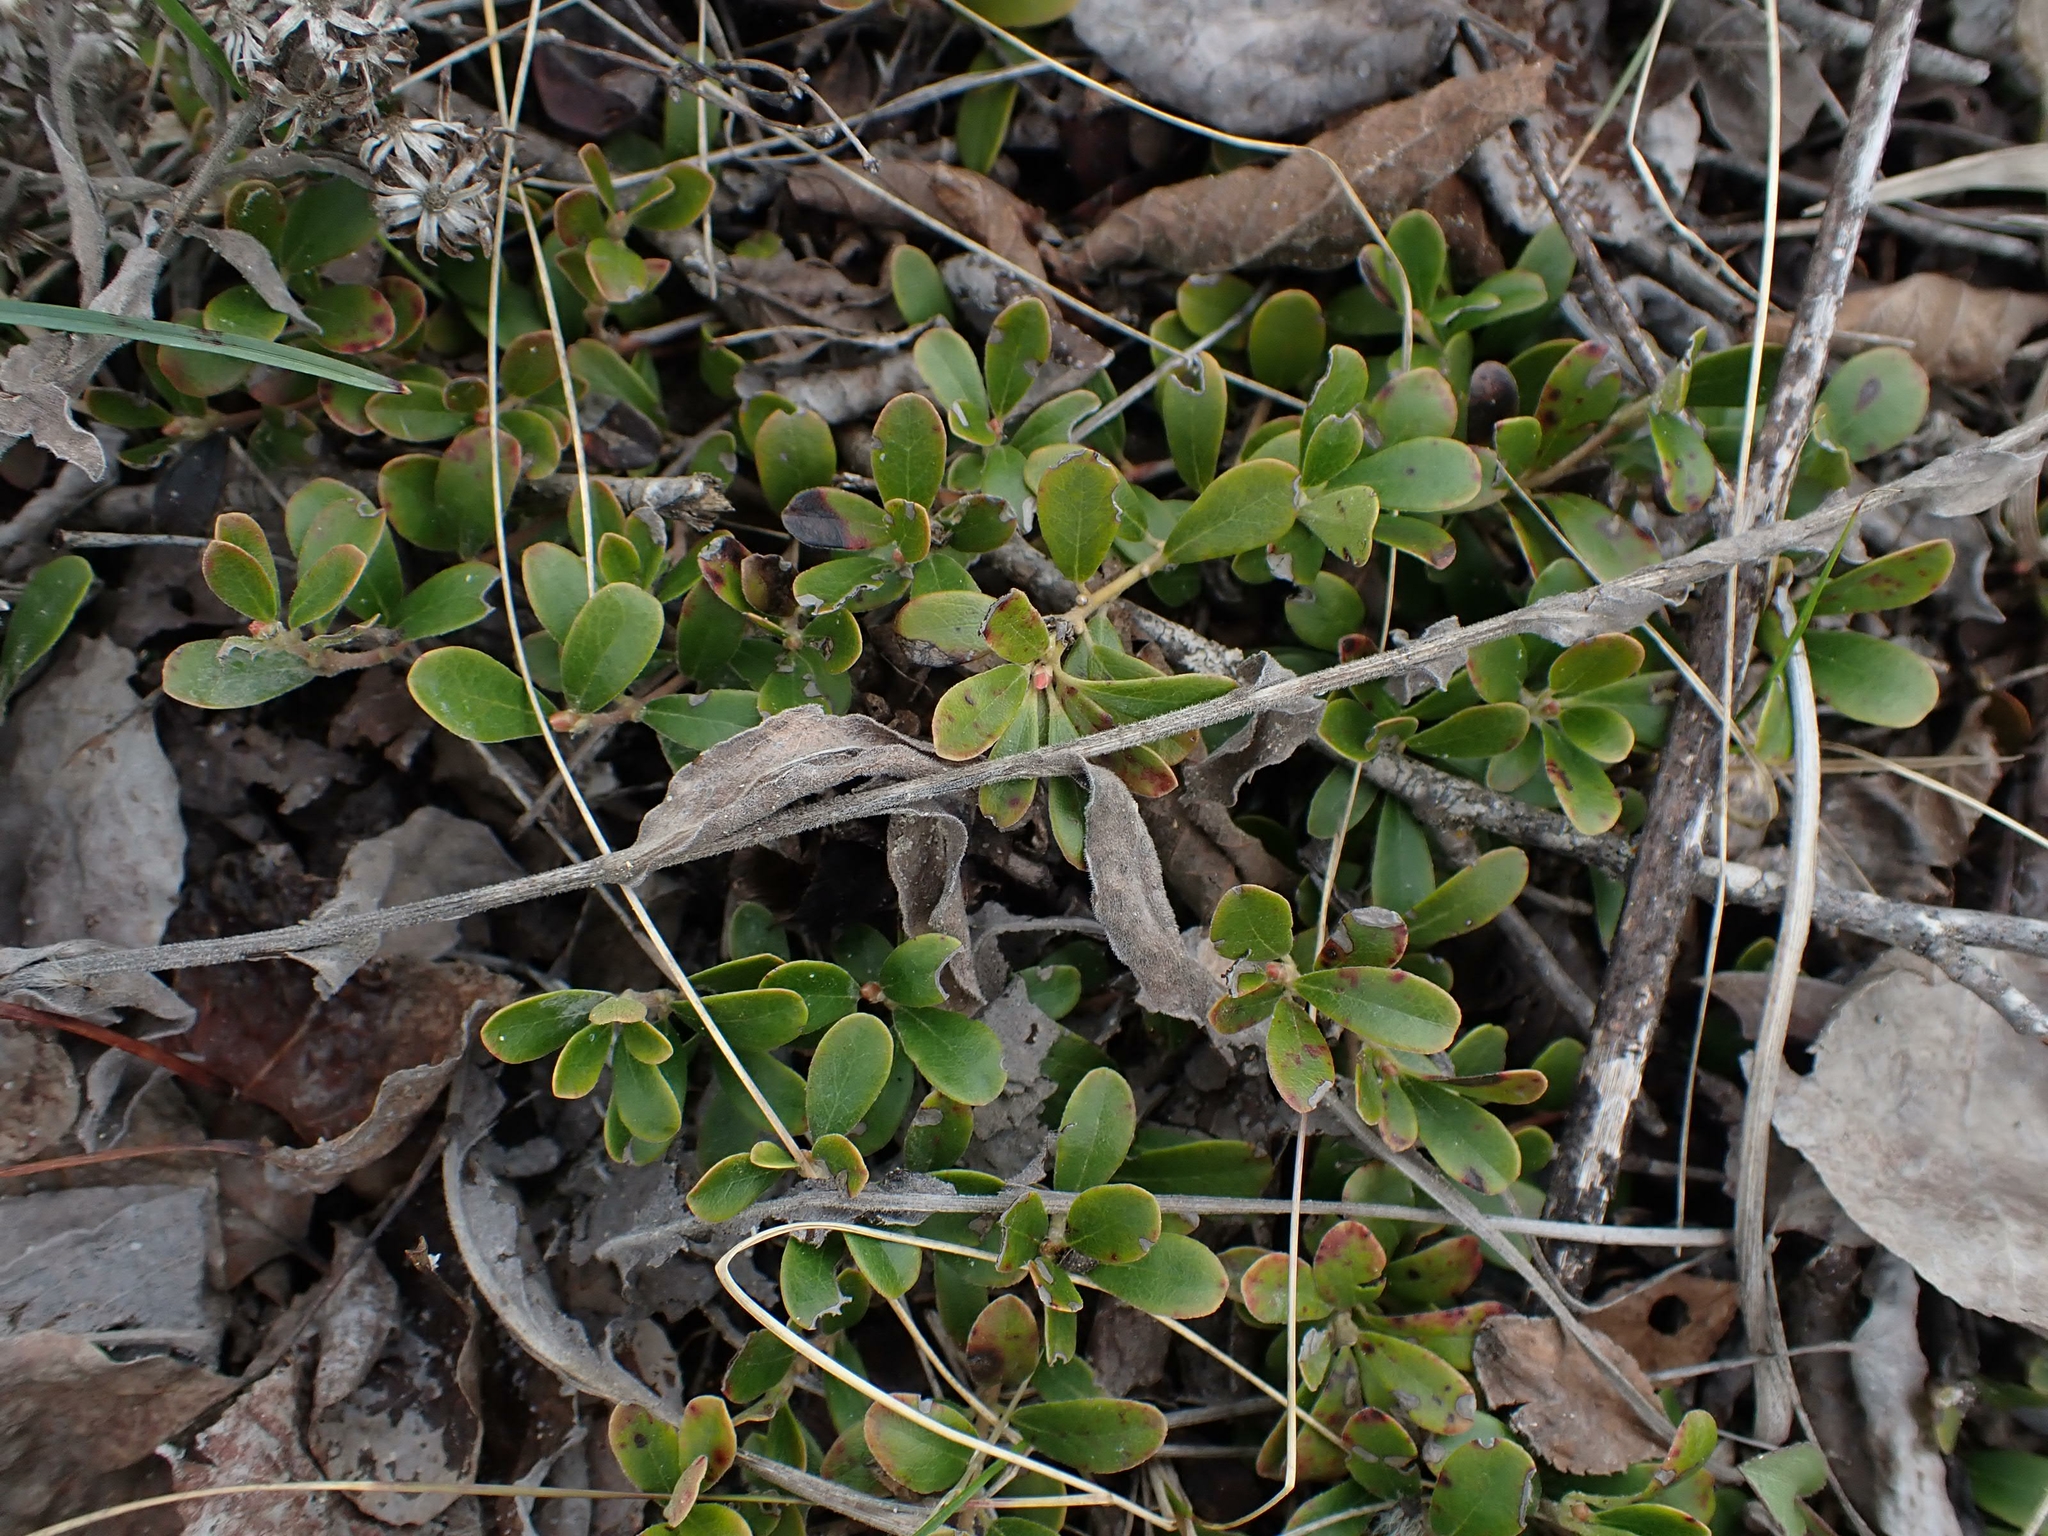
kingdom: Plantae
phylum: Tracheophyta
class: Magnoliopsida
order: Ericales
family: Ericaceae
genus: Arctostaphylos
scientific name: Arctostaphylos uva-ursi
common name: Bearberry
